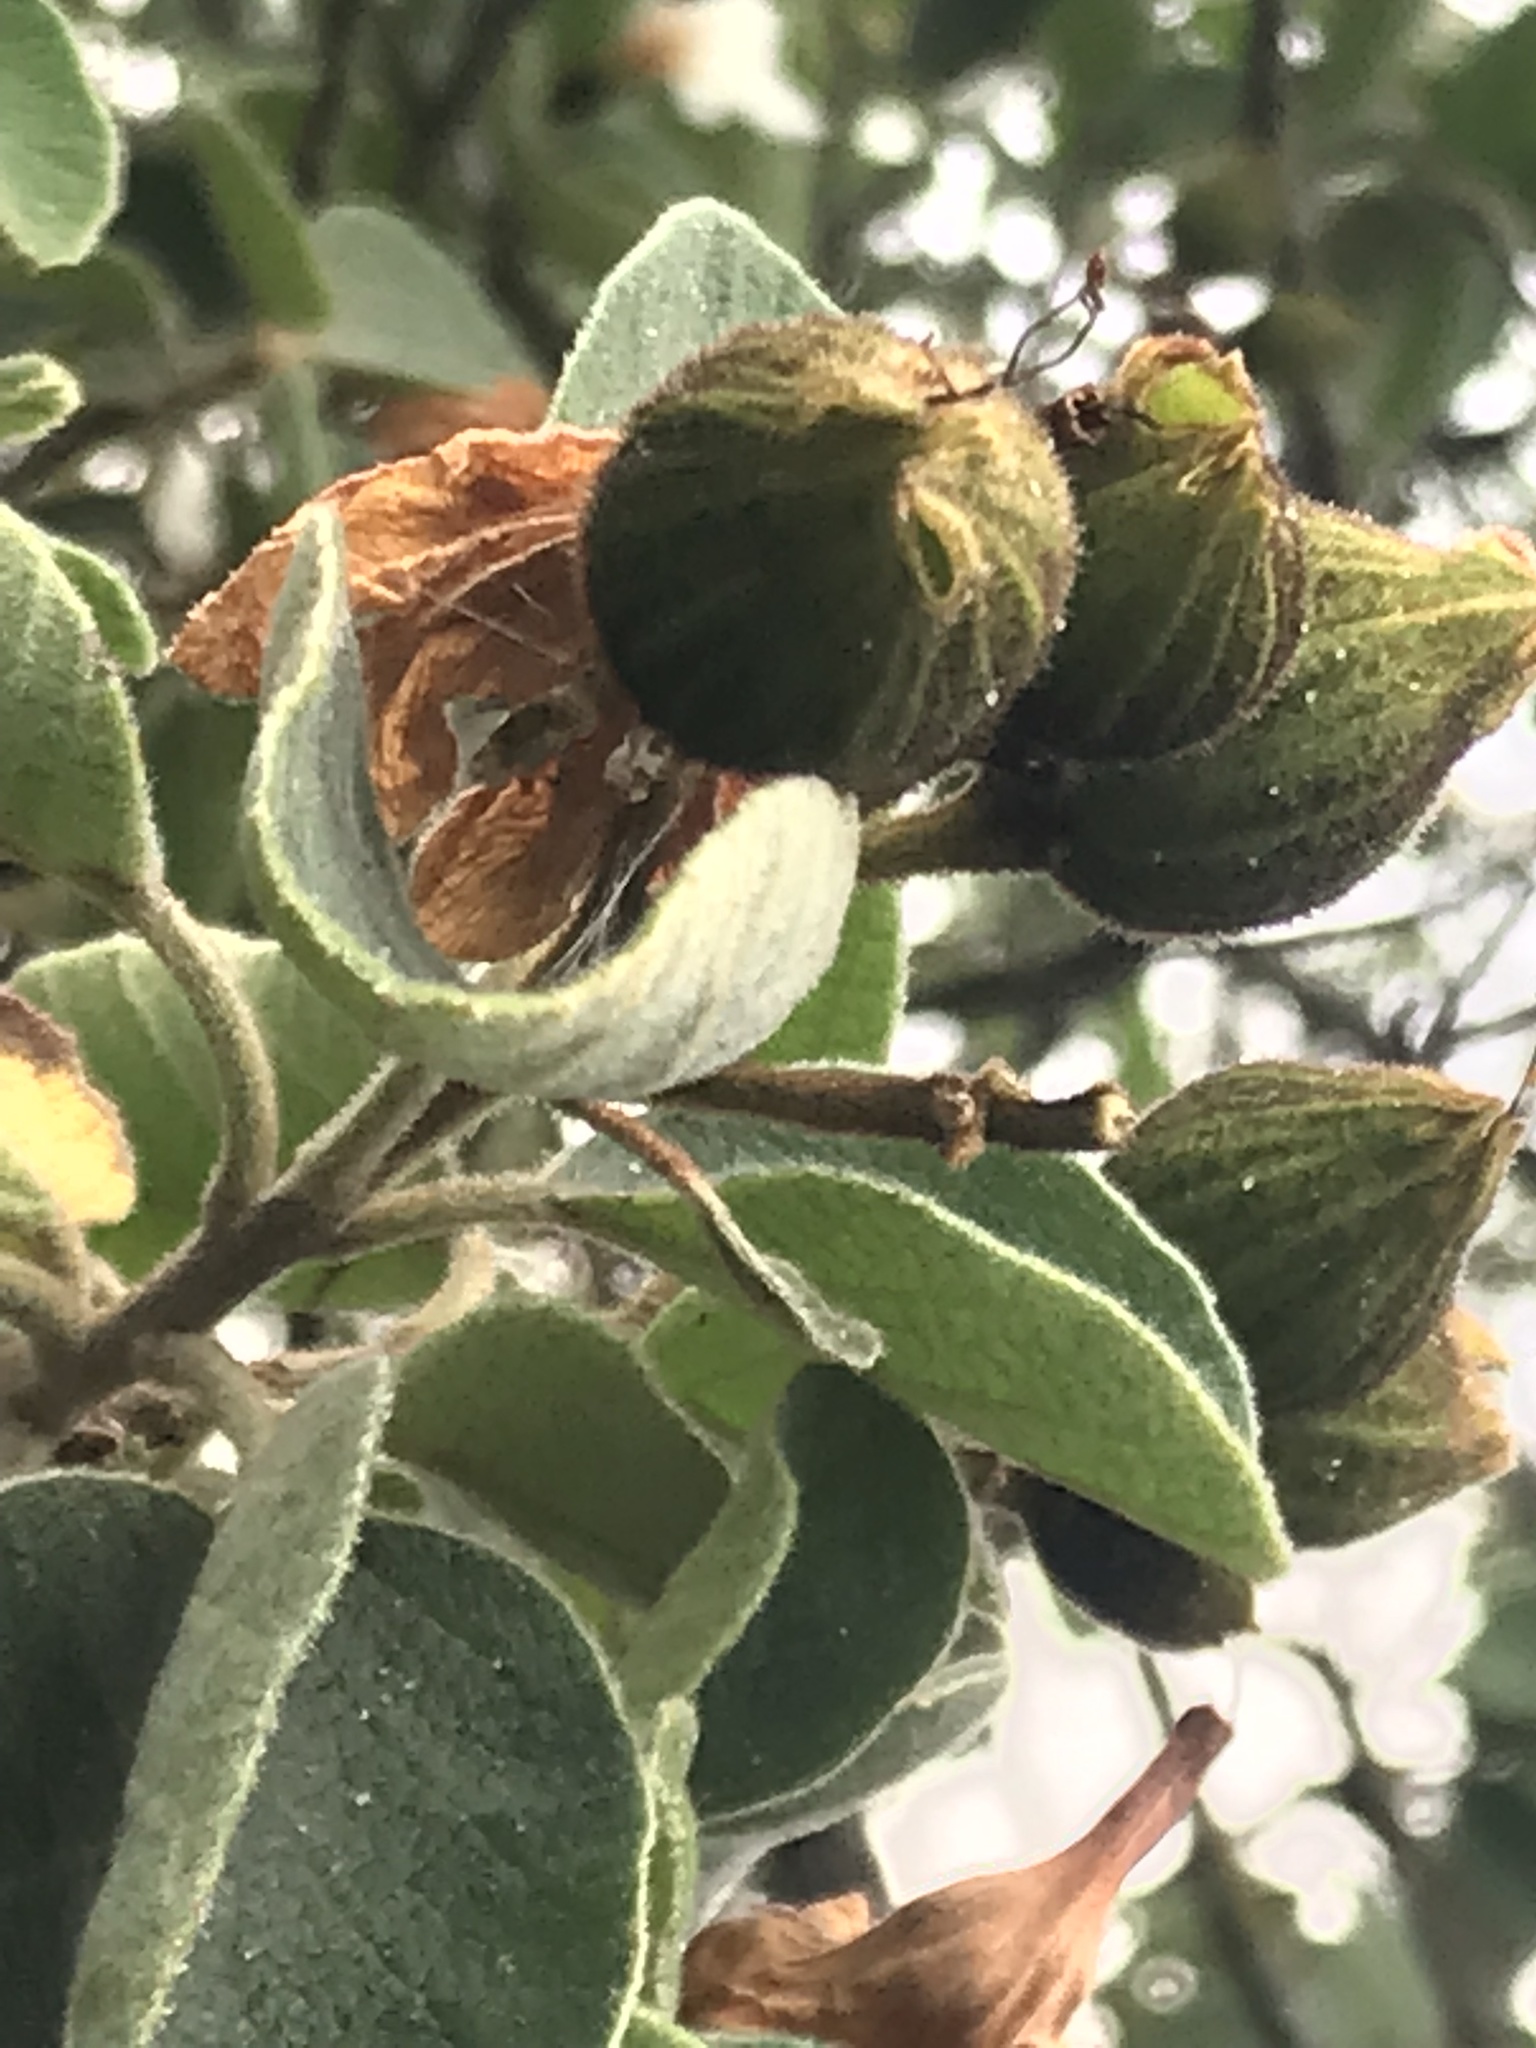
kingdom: Plantae
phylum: Tracheophyta
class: Magnoliopsida
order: Boraginales
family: Cordiaceae
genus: Cordia
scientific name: Cordia boissieri
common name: Mexican-olive
